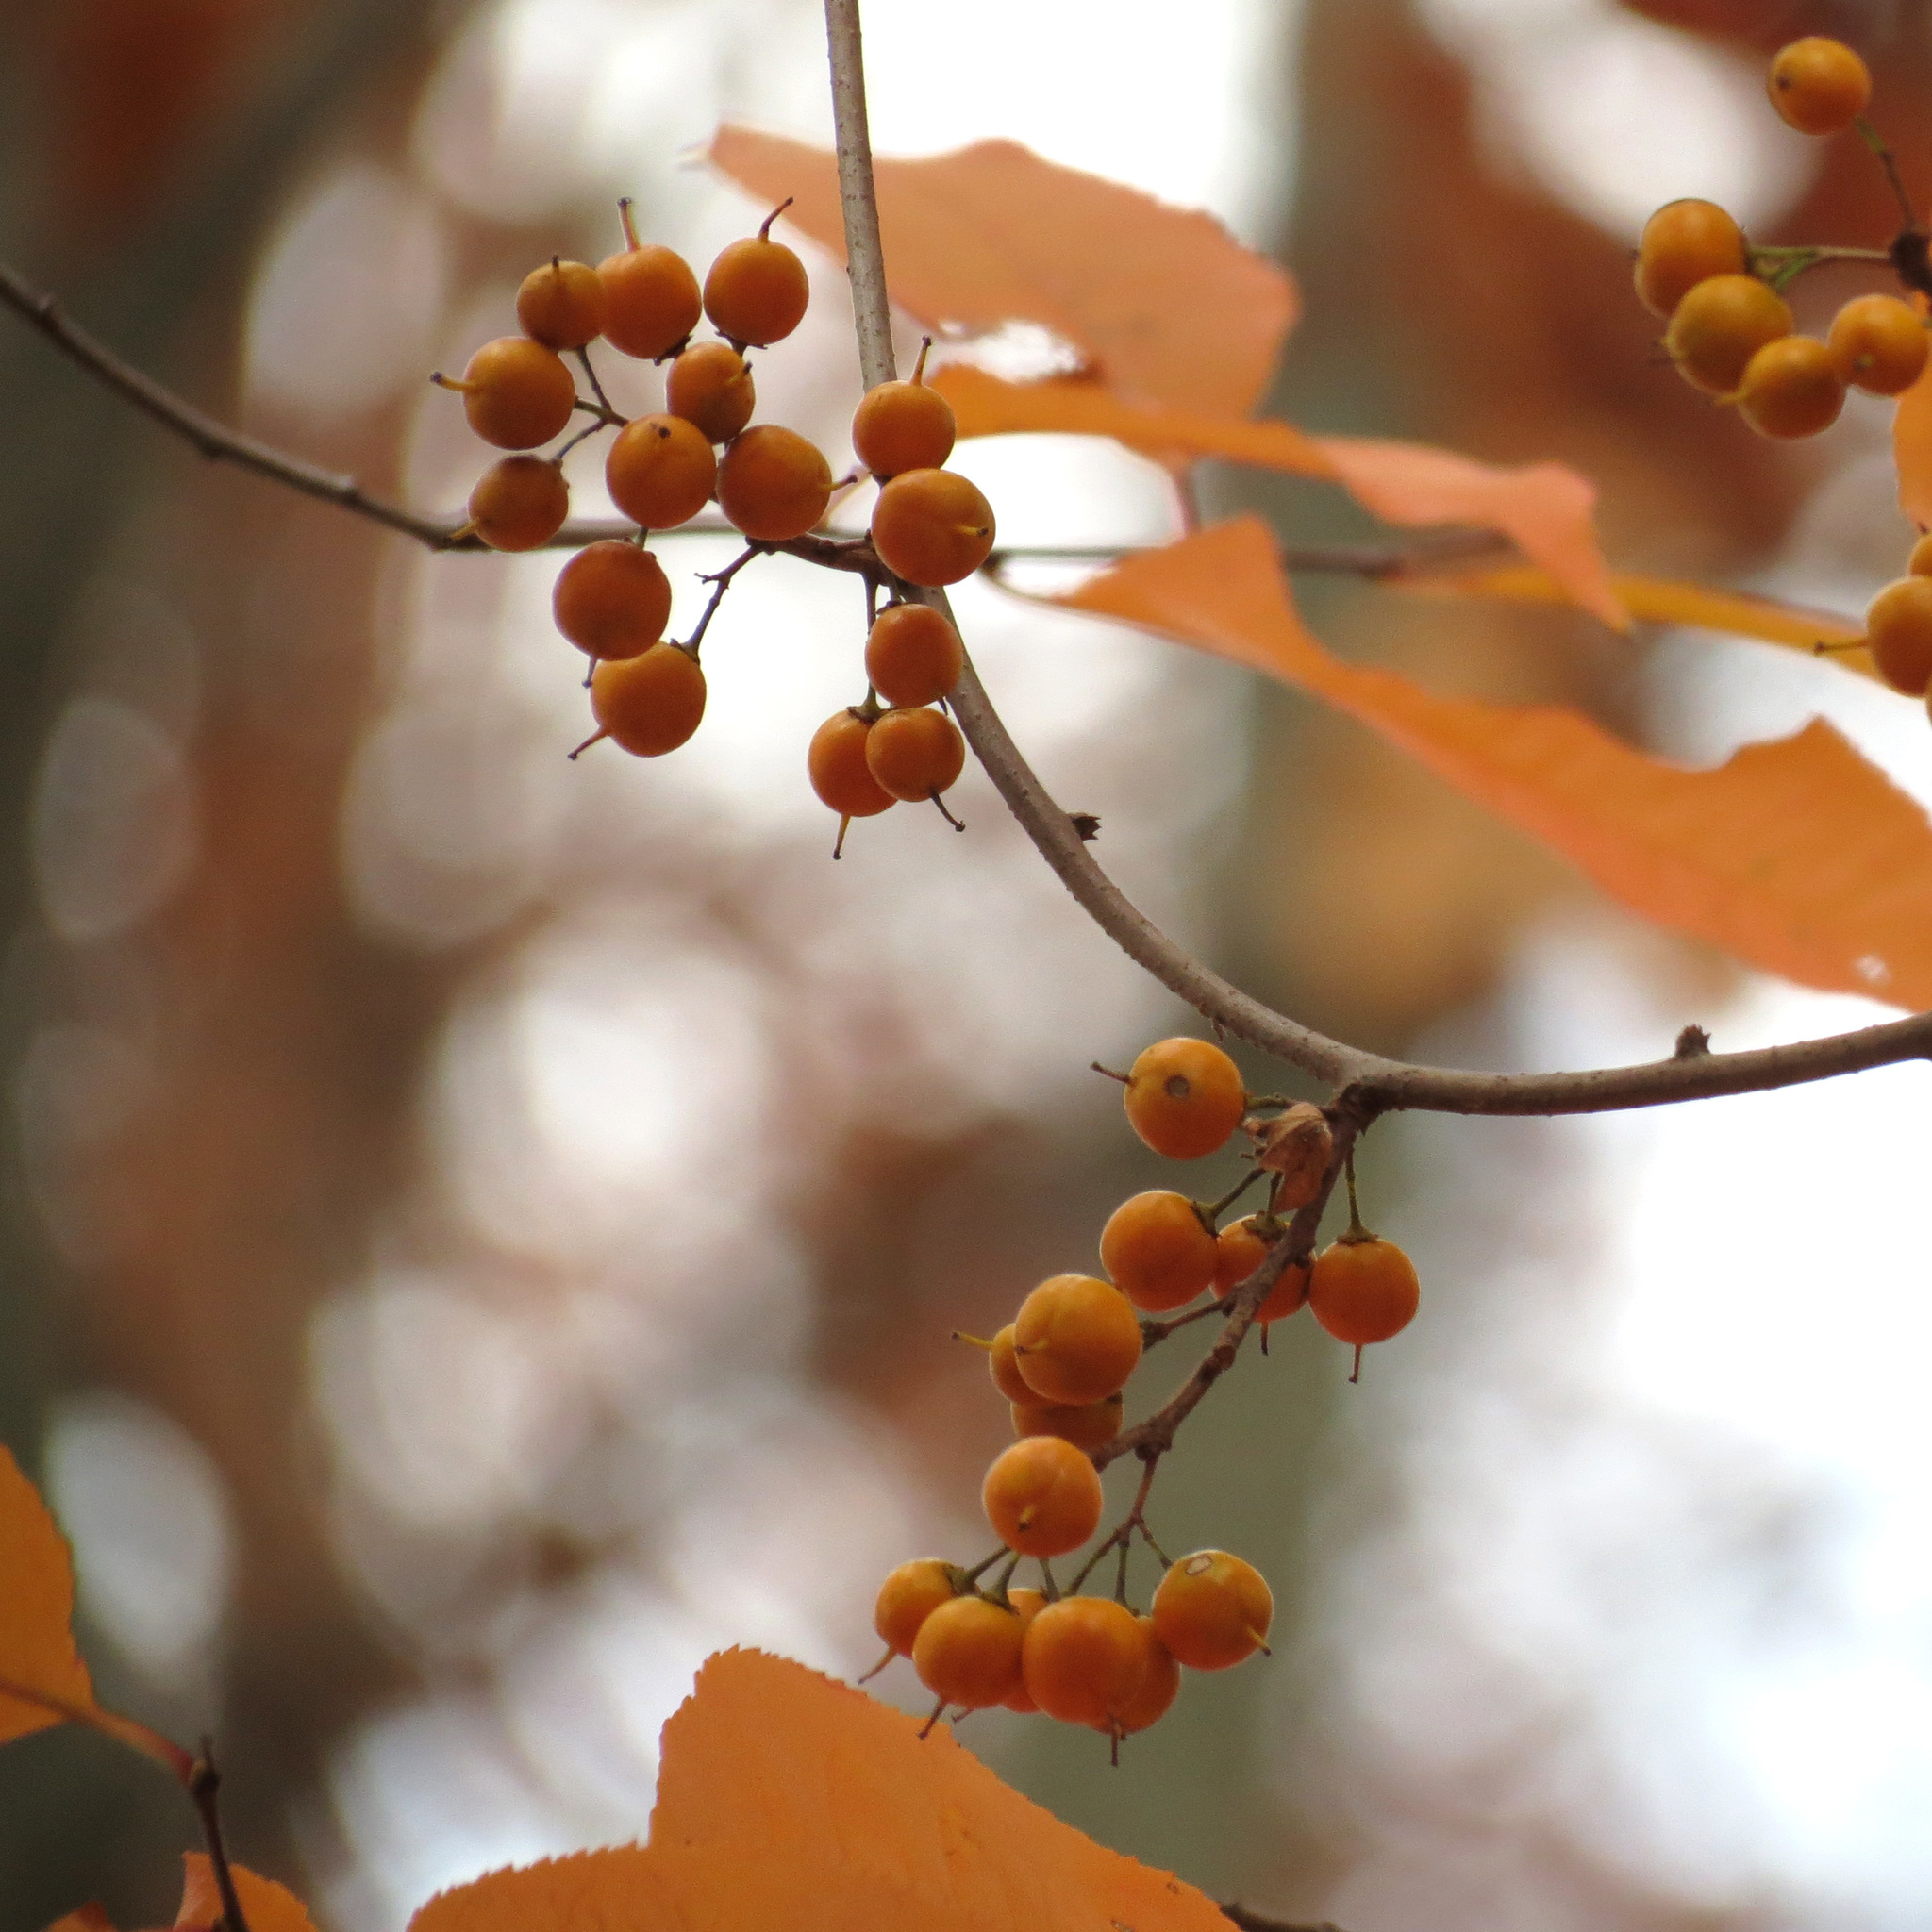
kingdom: Plantae
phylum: Tracheophyta
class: Magnoliopsida
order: Celastrales
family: Celastraceae
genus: Celastrus
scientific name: Celastrus orbiculatus
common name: Oriental bittersweet
